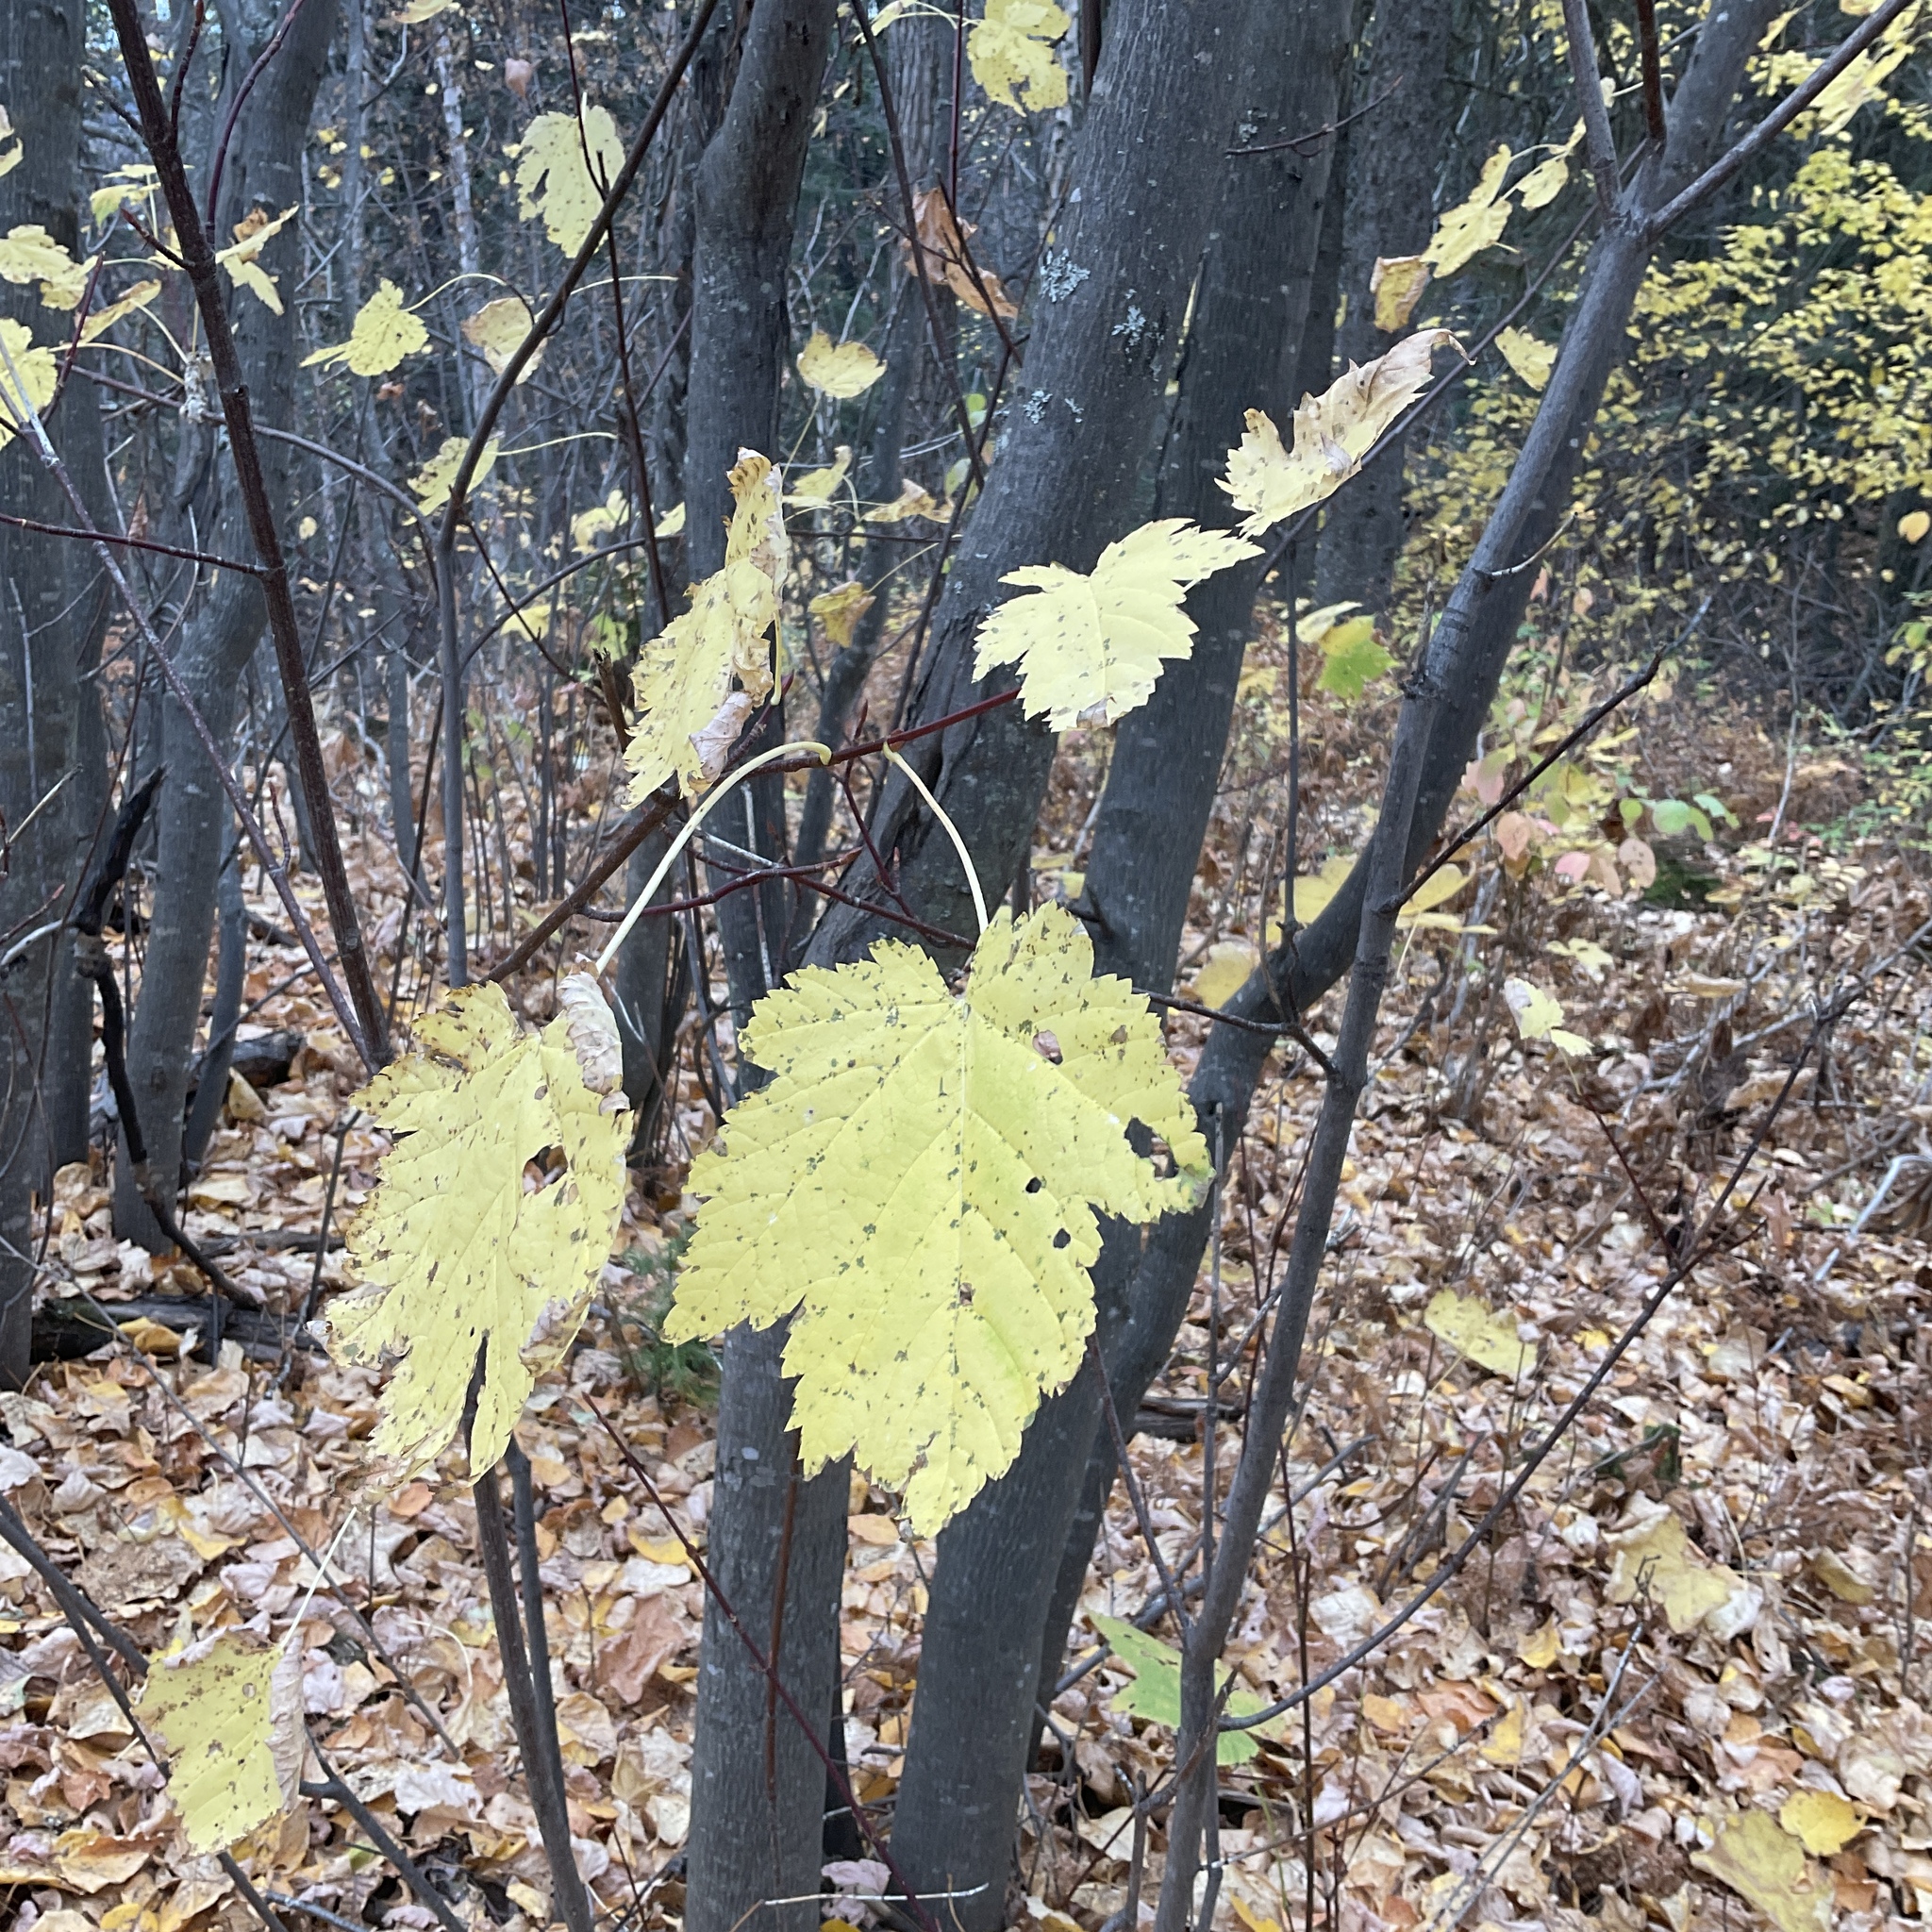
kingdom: Plantae
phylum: Tracheophyta
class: Magnoliopsida
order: Sapindales
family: Sapindaceae
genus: Acer
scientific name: Acer glabrum
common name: Rocky mountain maple
